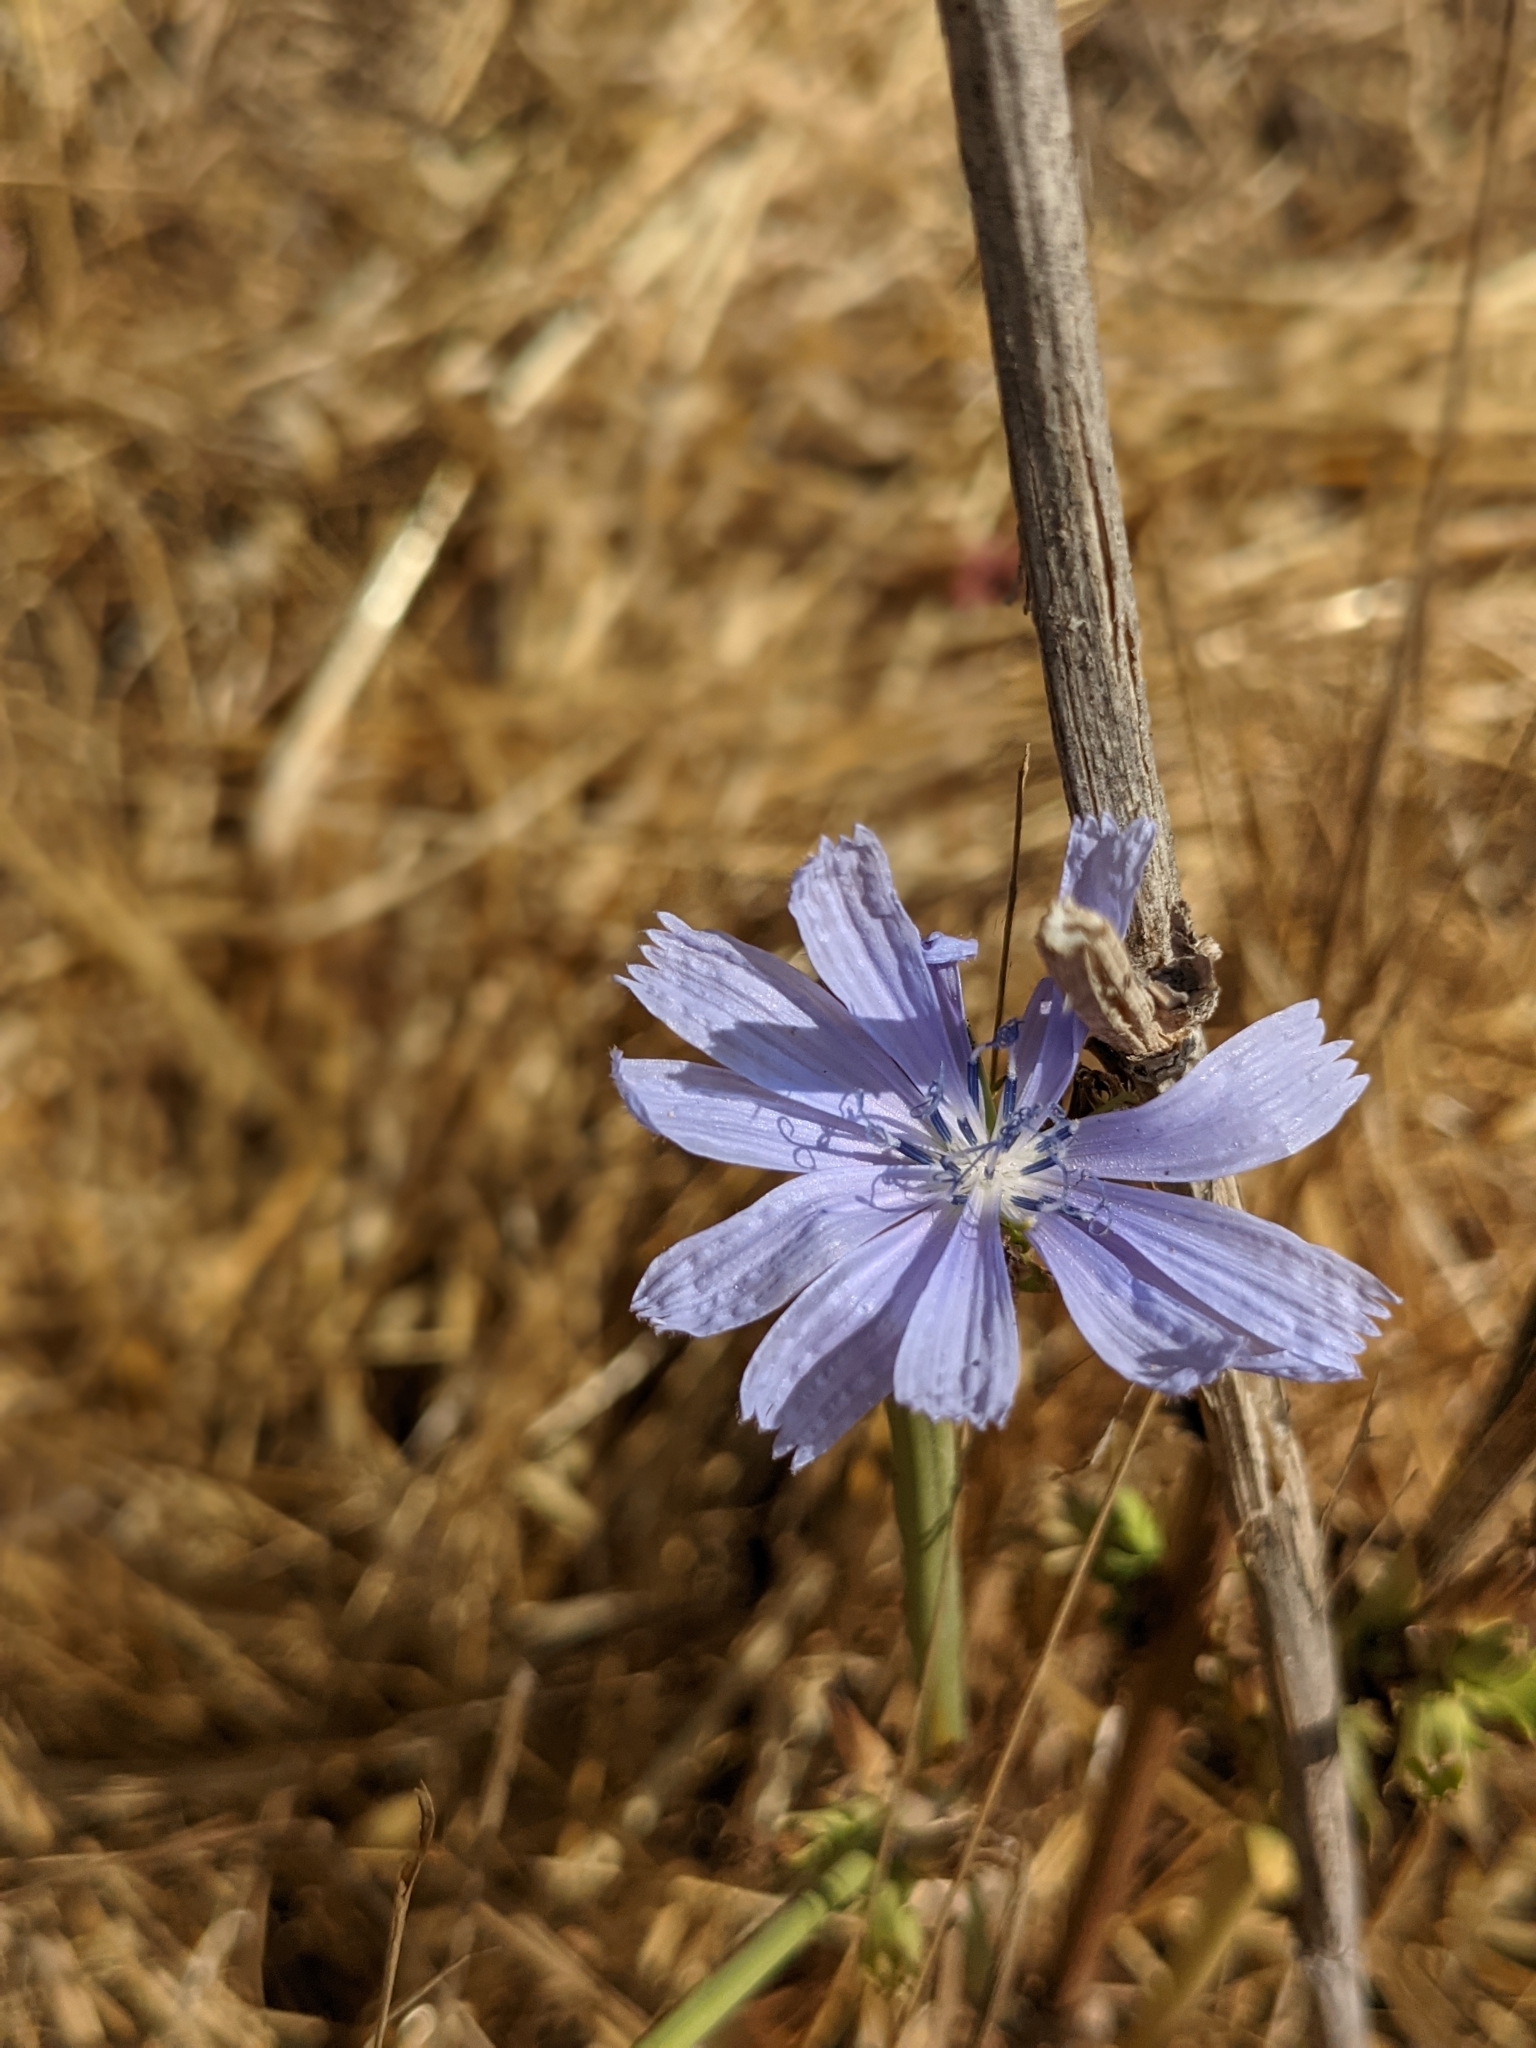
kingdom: Plantae
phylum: Tracheophyta
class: Magnoliopsida
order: Asterales
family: Asteraceae
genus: Cichorium
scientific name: Cichorium intybus
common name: Chicory
